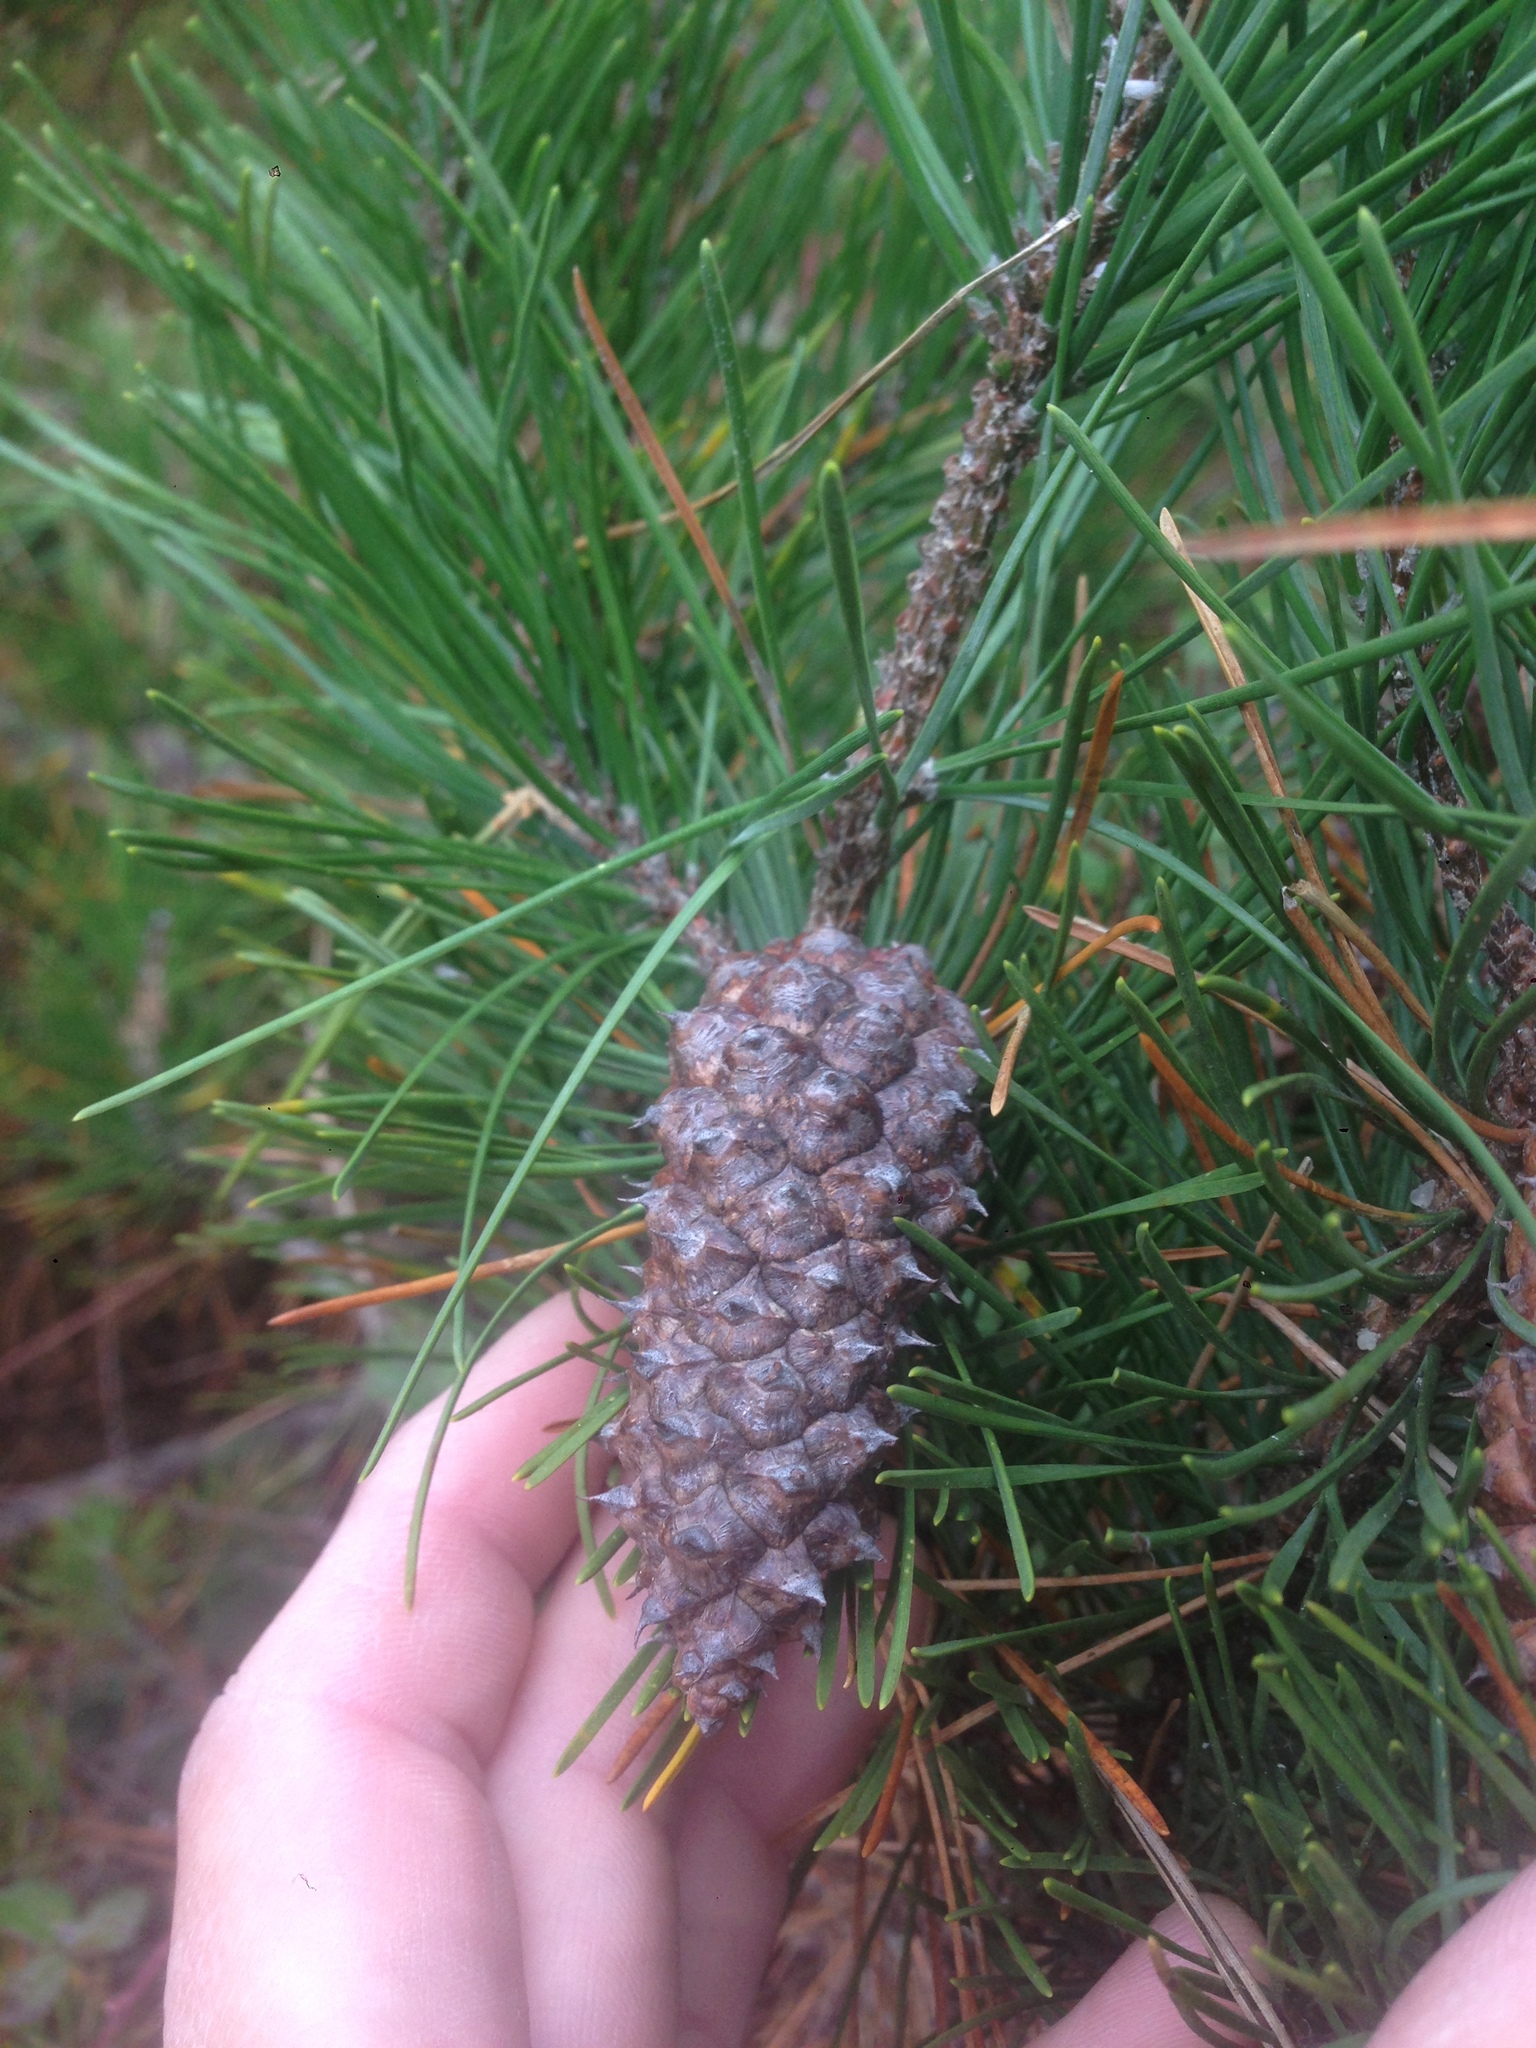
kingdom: Plantae
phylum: Tracheophyta
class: Pinopsida
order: Pinales
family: Pinaceae
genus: Pinus
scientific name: Pinus muricata
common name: Bishop pine
